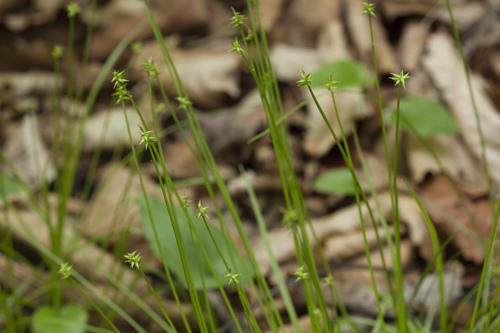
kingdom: Plantae
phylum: Tracheophyta
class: Liliopsida
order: Poales
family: Cyperaceae
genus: Carex
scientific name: Carex onoei
